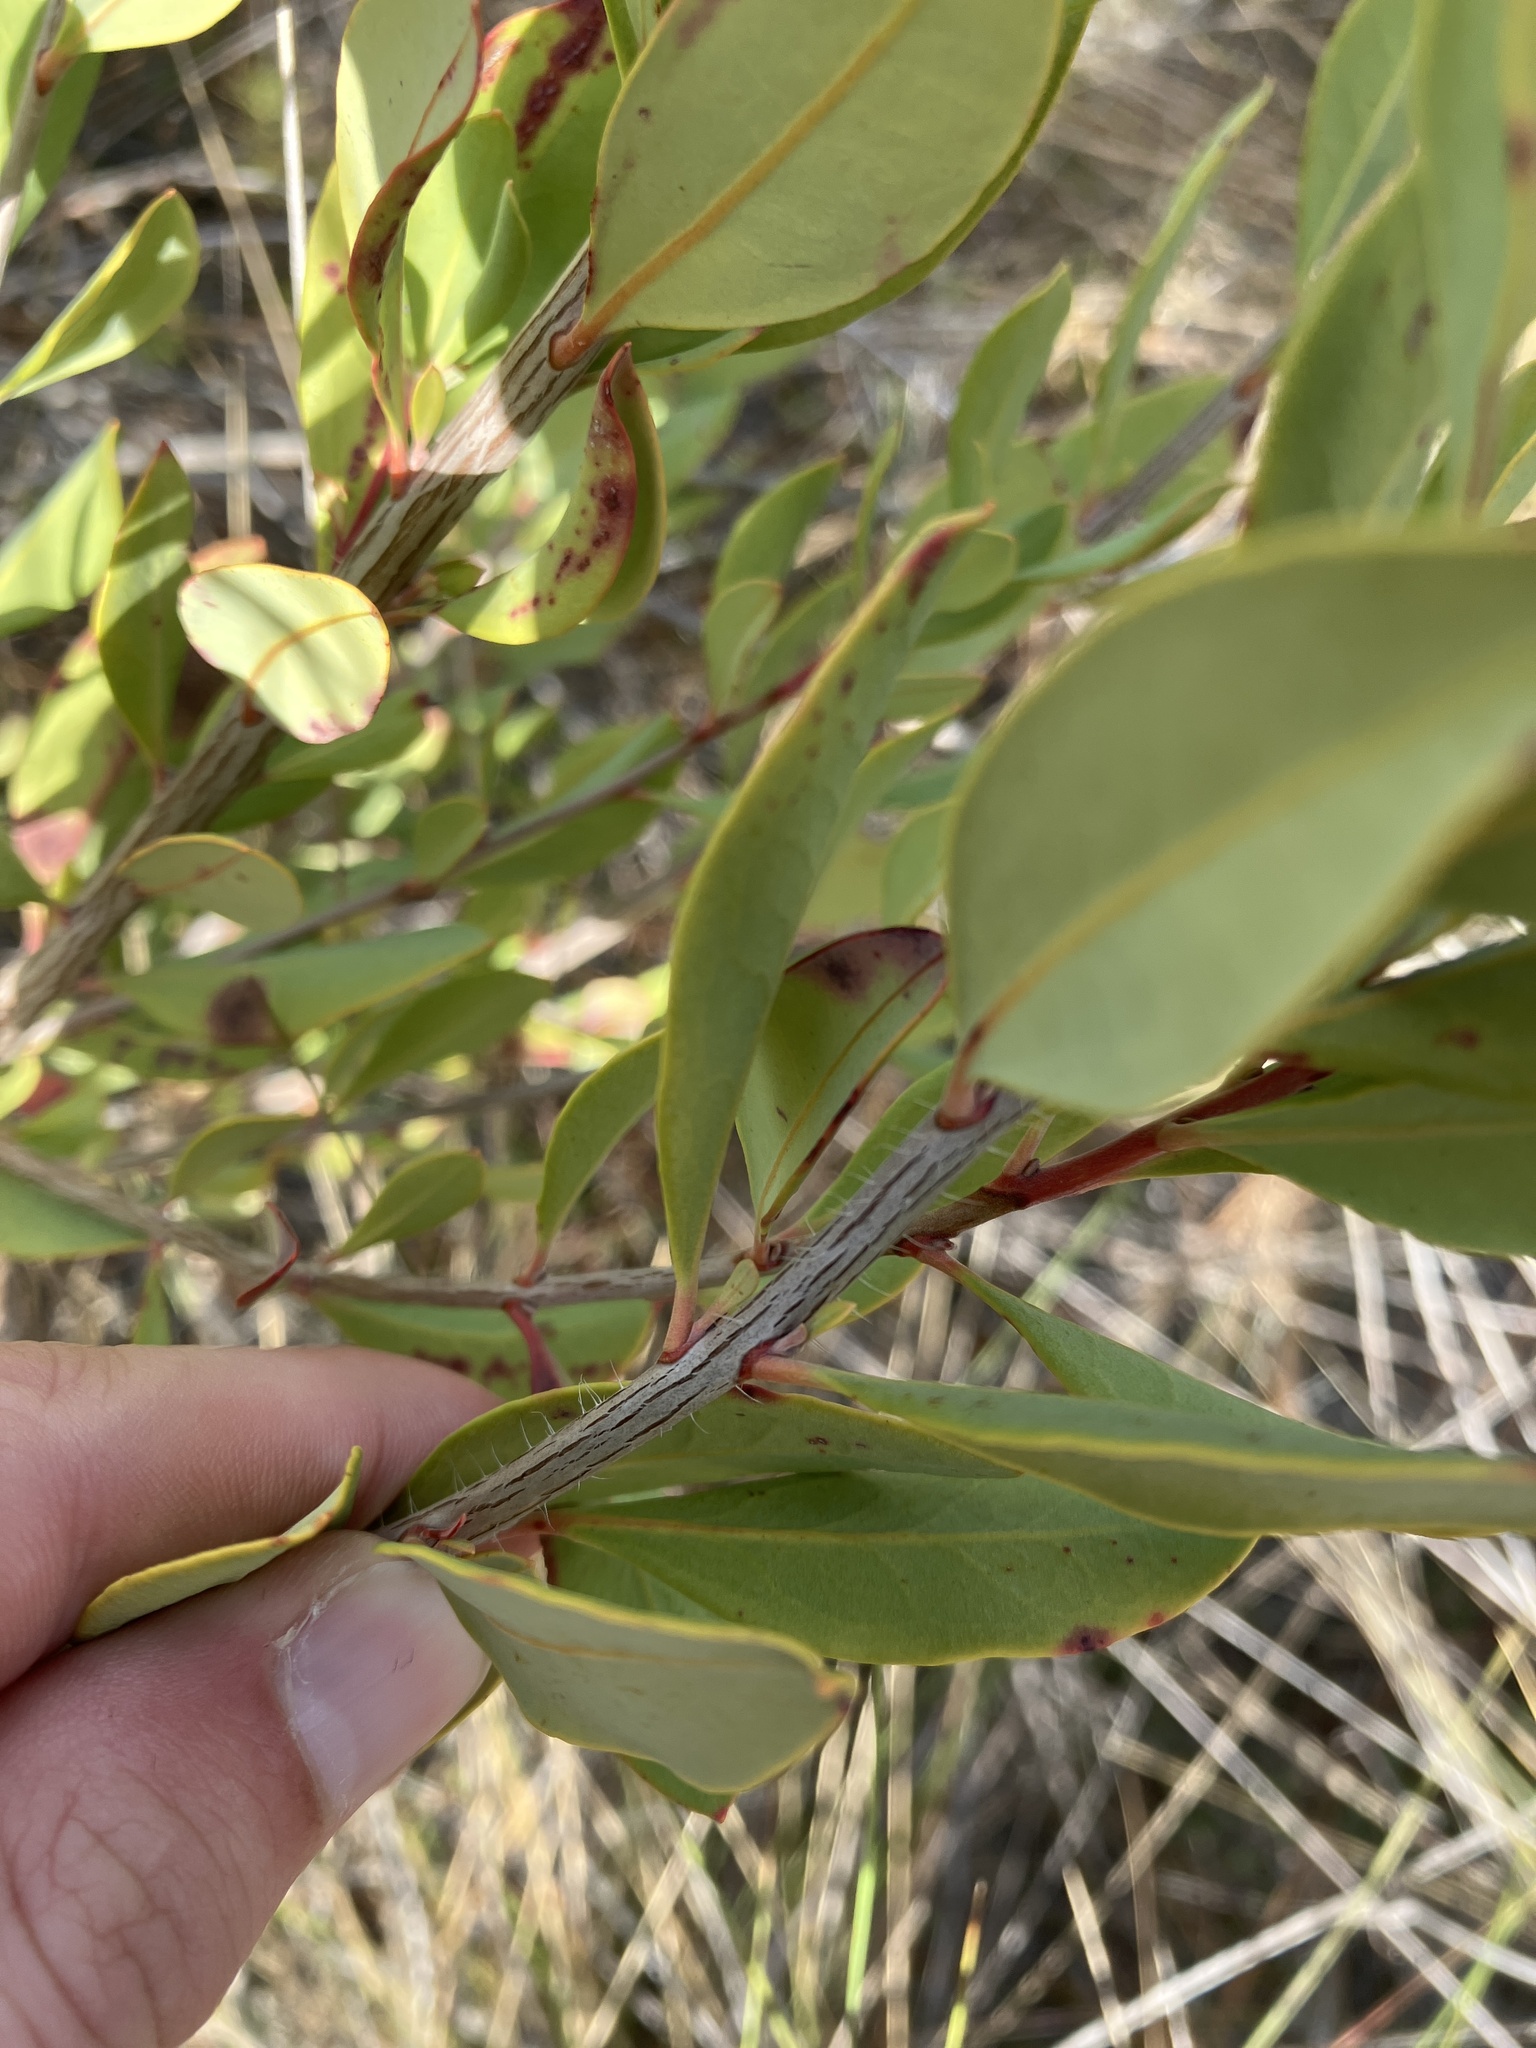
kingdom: Plantae
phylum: Tracheophyta
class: Magnoliopsida
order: Ericales
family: Ericaceae
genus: Bejaria
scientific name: Bejaria racemosa
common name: Tarflower
